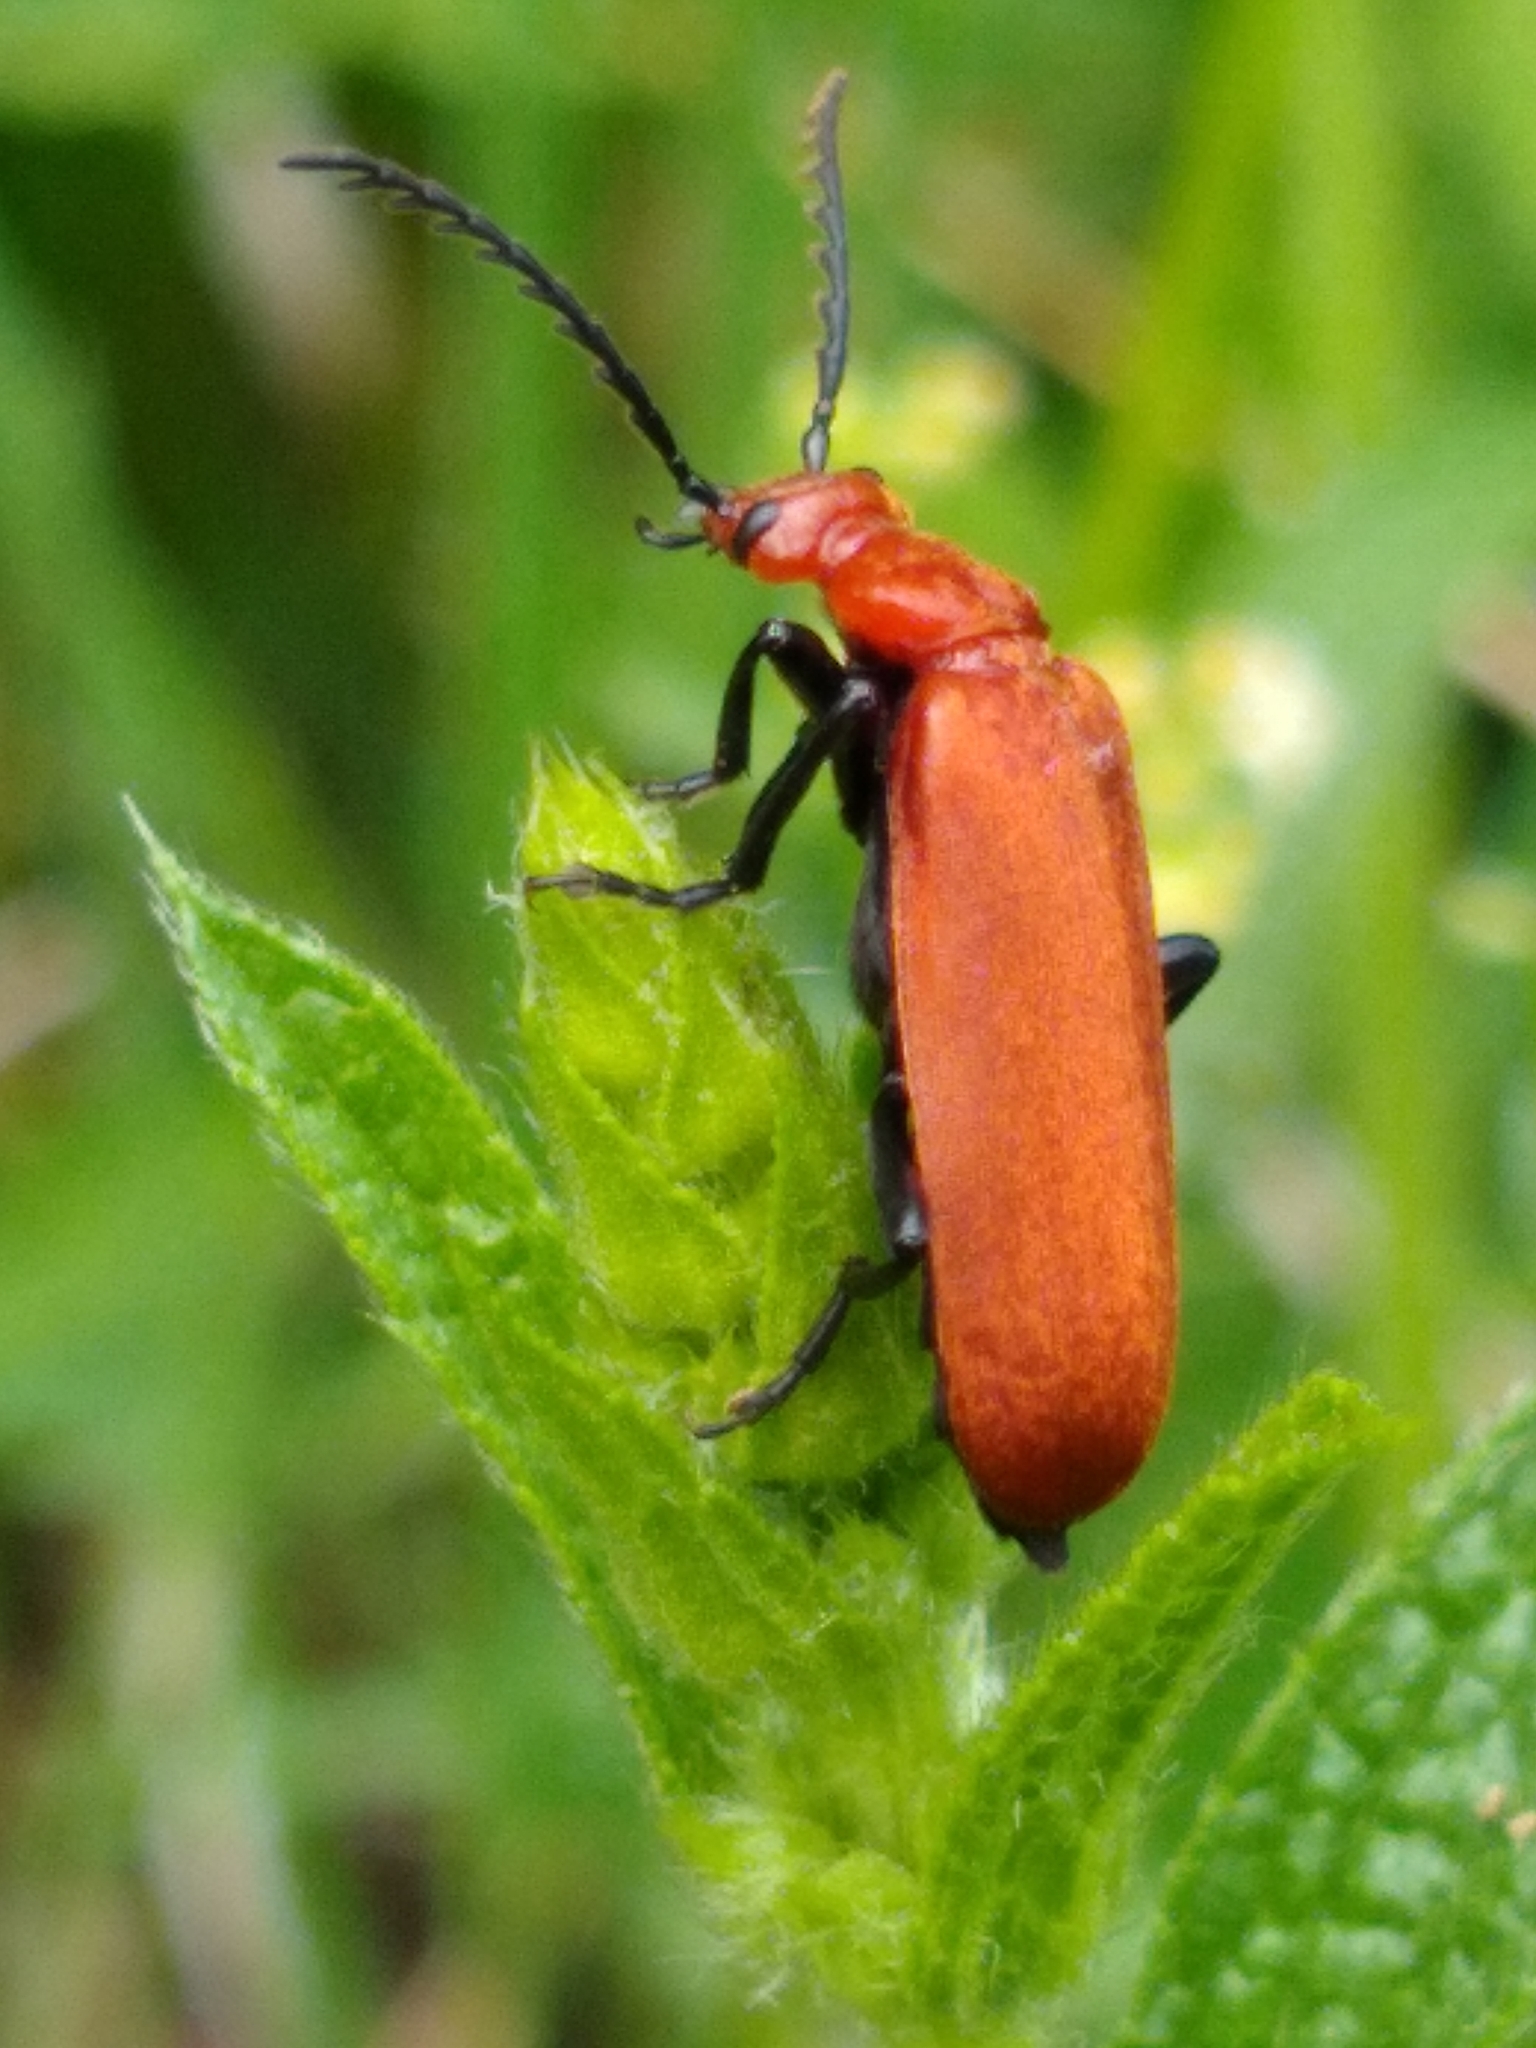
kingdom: Animalia
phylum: Arthropoda
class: Insecta
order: Coleoptera
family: Pyrochroidae
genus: Pyrochroa
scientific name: Pyrochroa serraticornis
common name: Red-headed cardinal beetle
